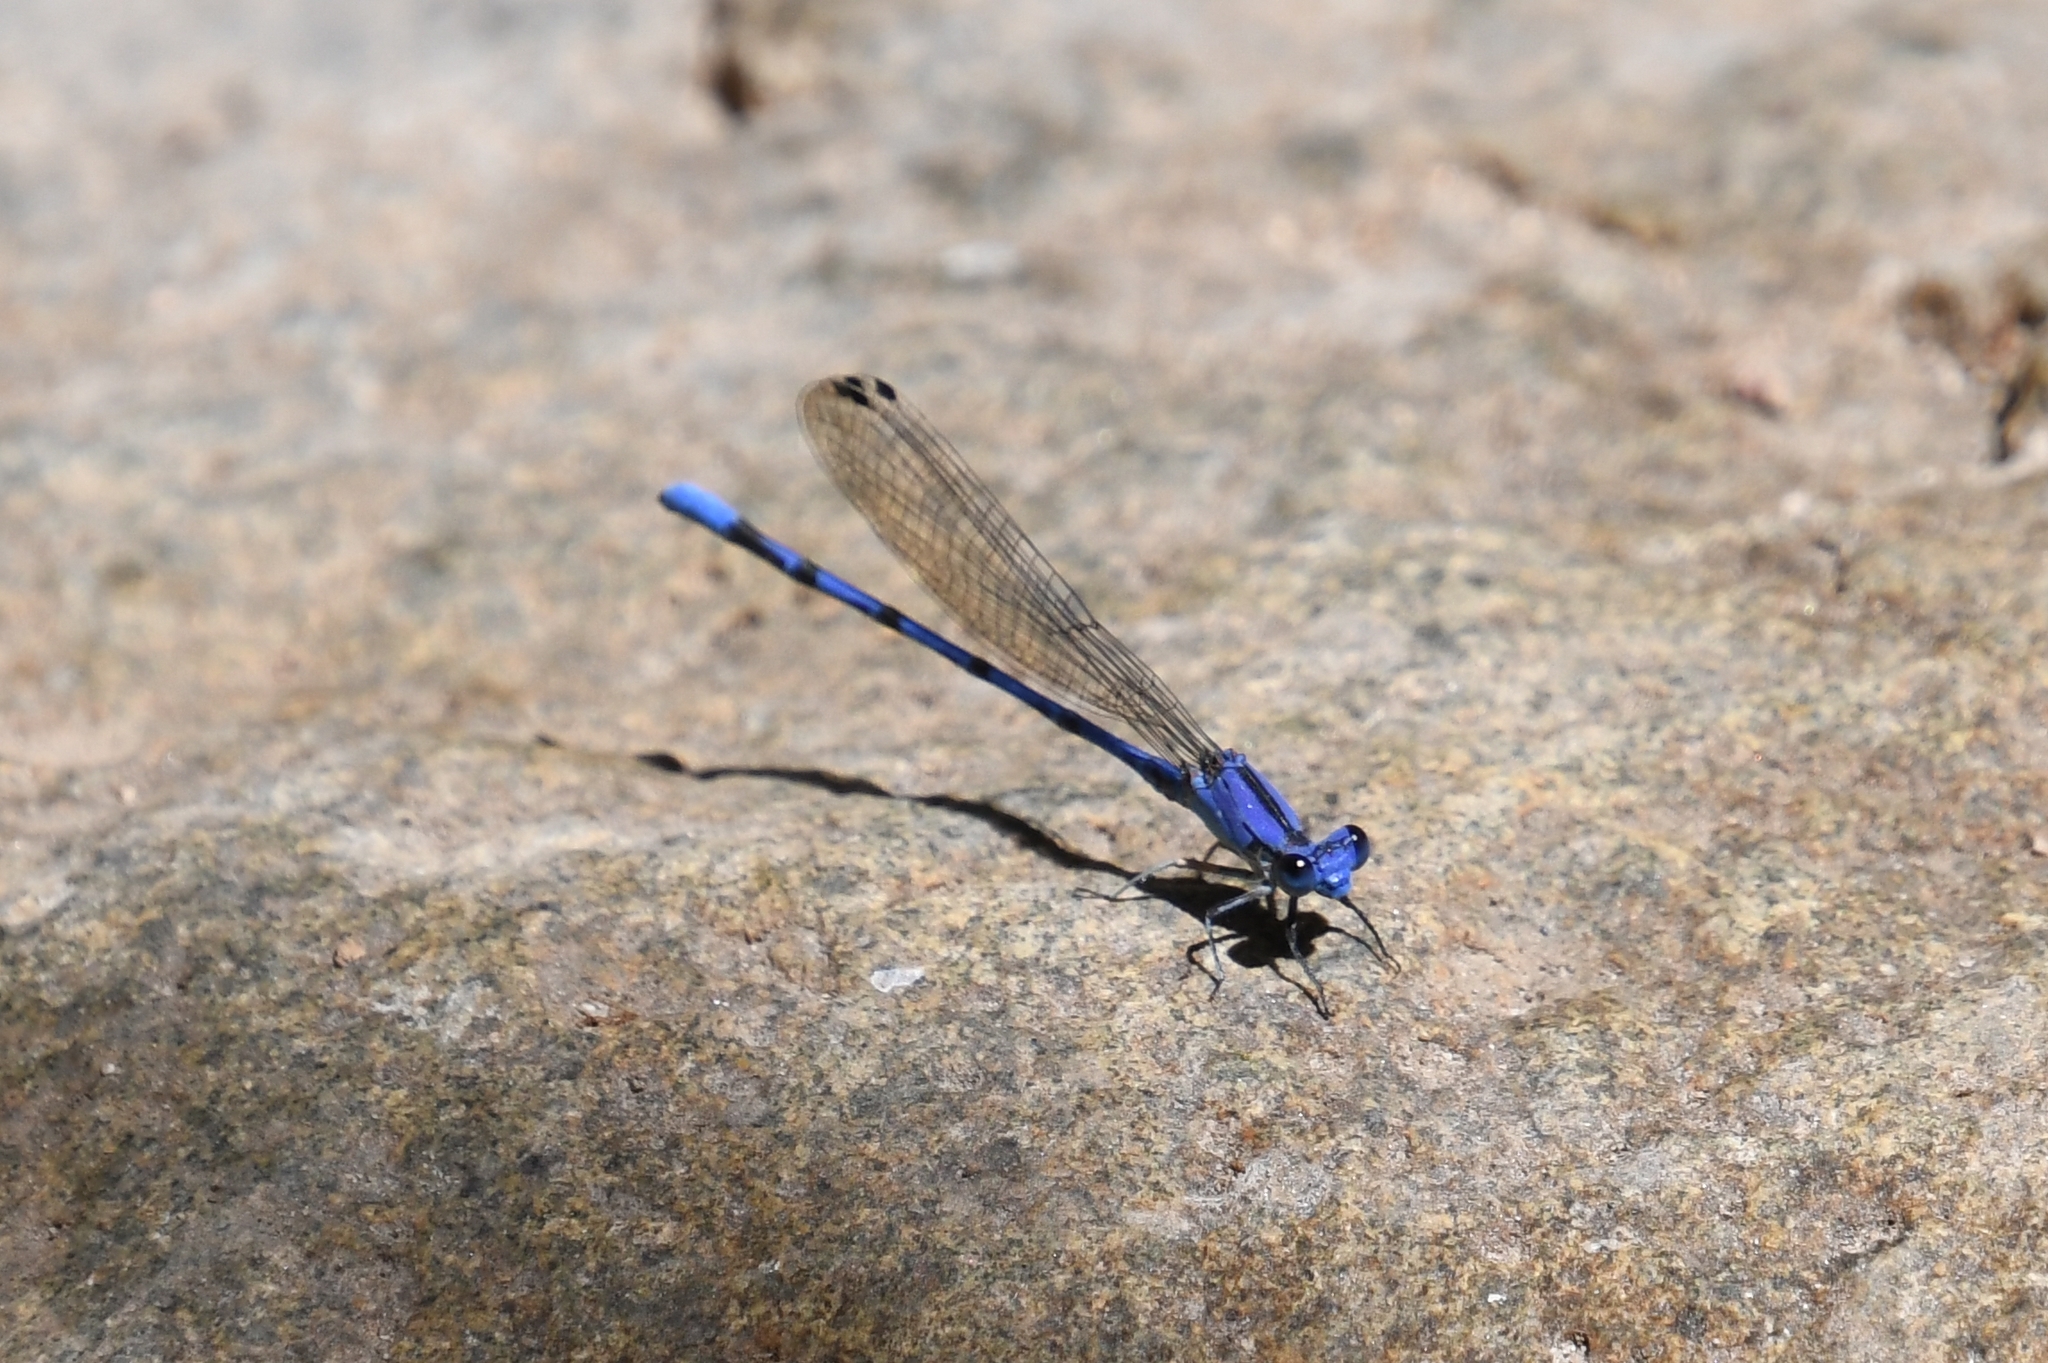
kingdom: Animalia
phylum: Arthropoda
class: Insecta
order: Odonata
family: Coenagrionidae
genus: Argia
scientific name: Argia extranea
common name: Spine-tipped dancer
